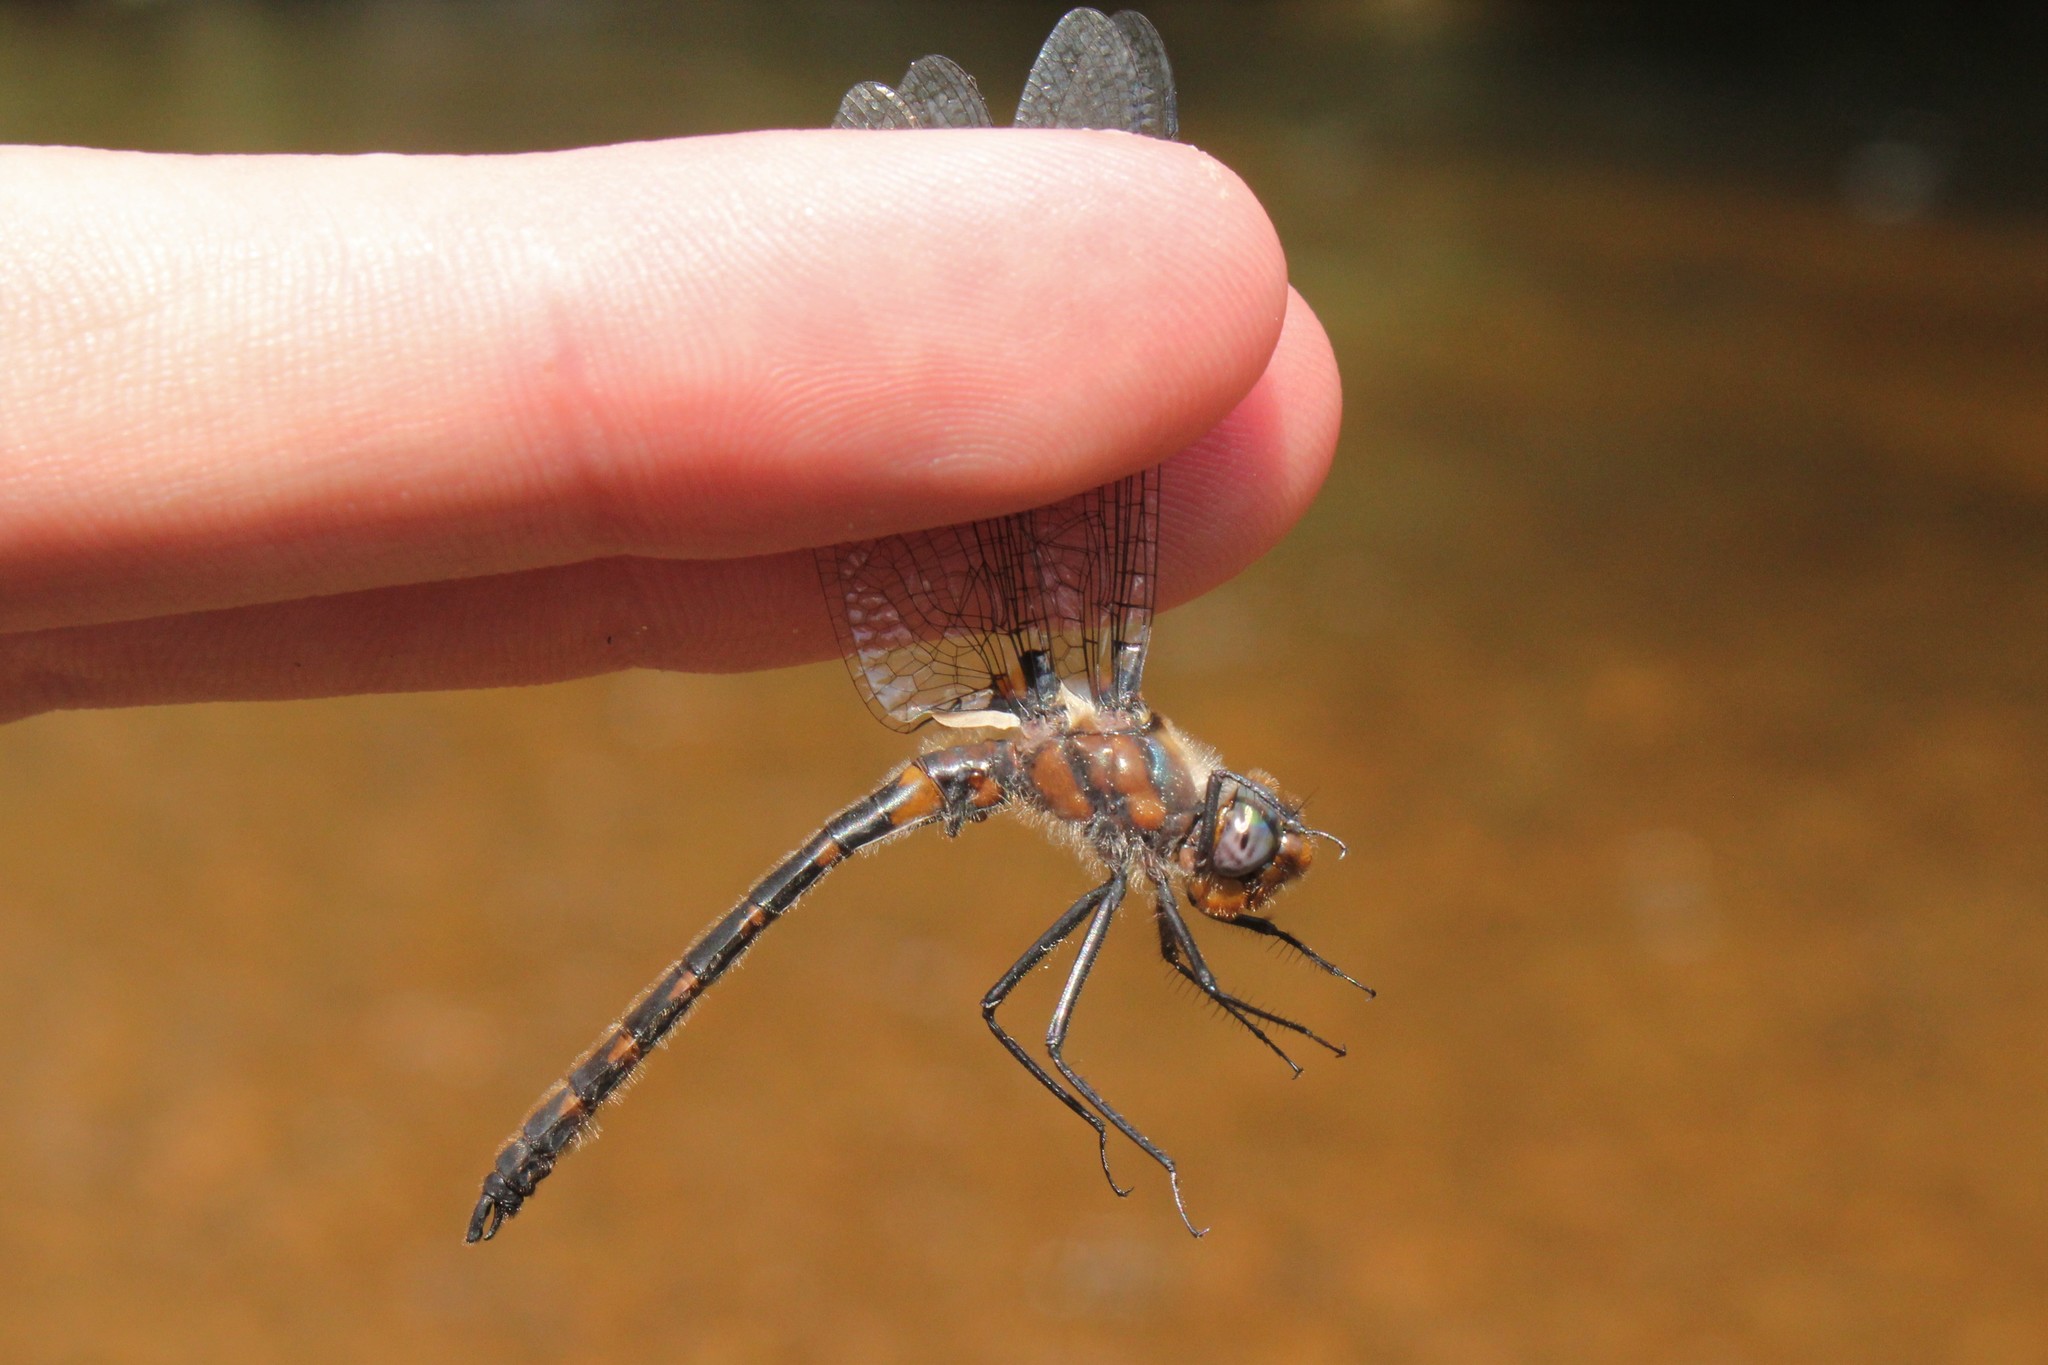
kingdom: Animalia
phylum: Arthropoda
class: Insecta
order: Odonata
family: Corduliidae
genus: Helocordulia
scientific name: Helocordulia uhleri
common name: Uhler's sundragon
